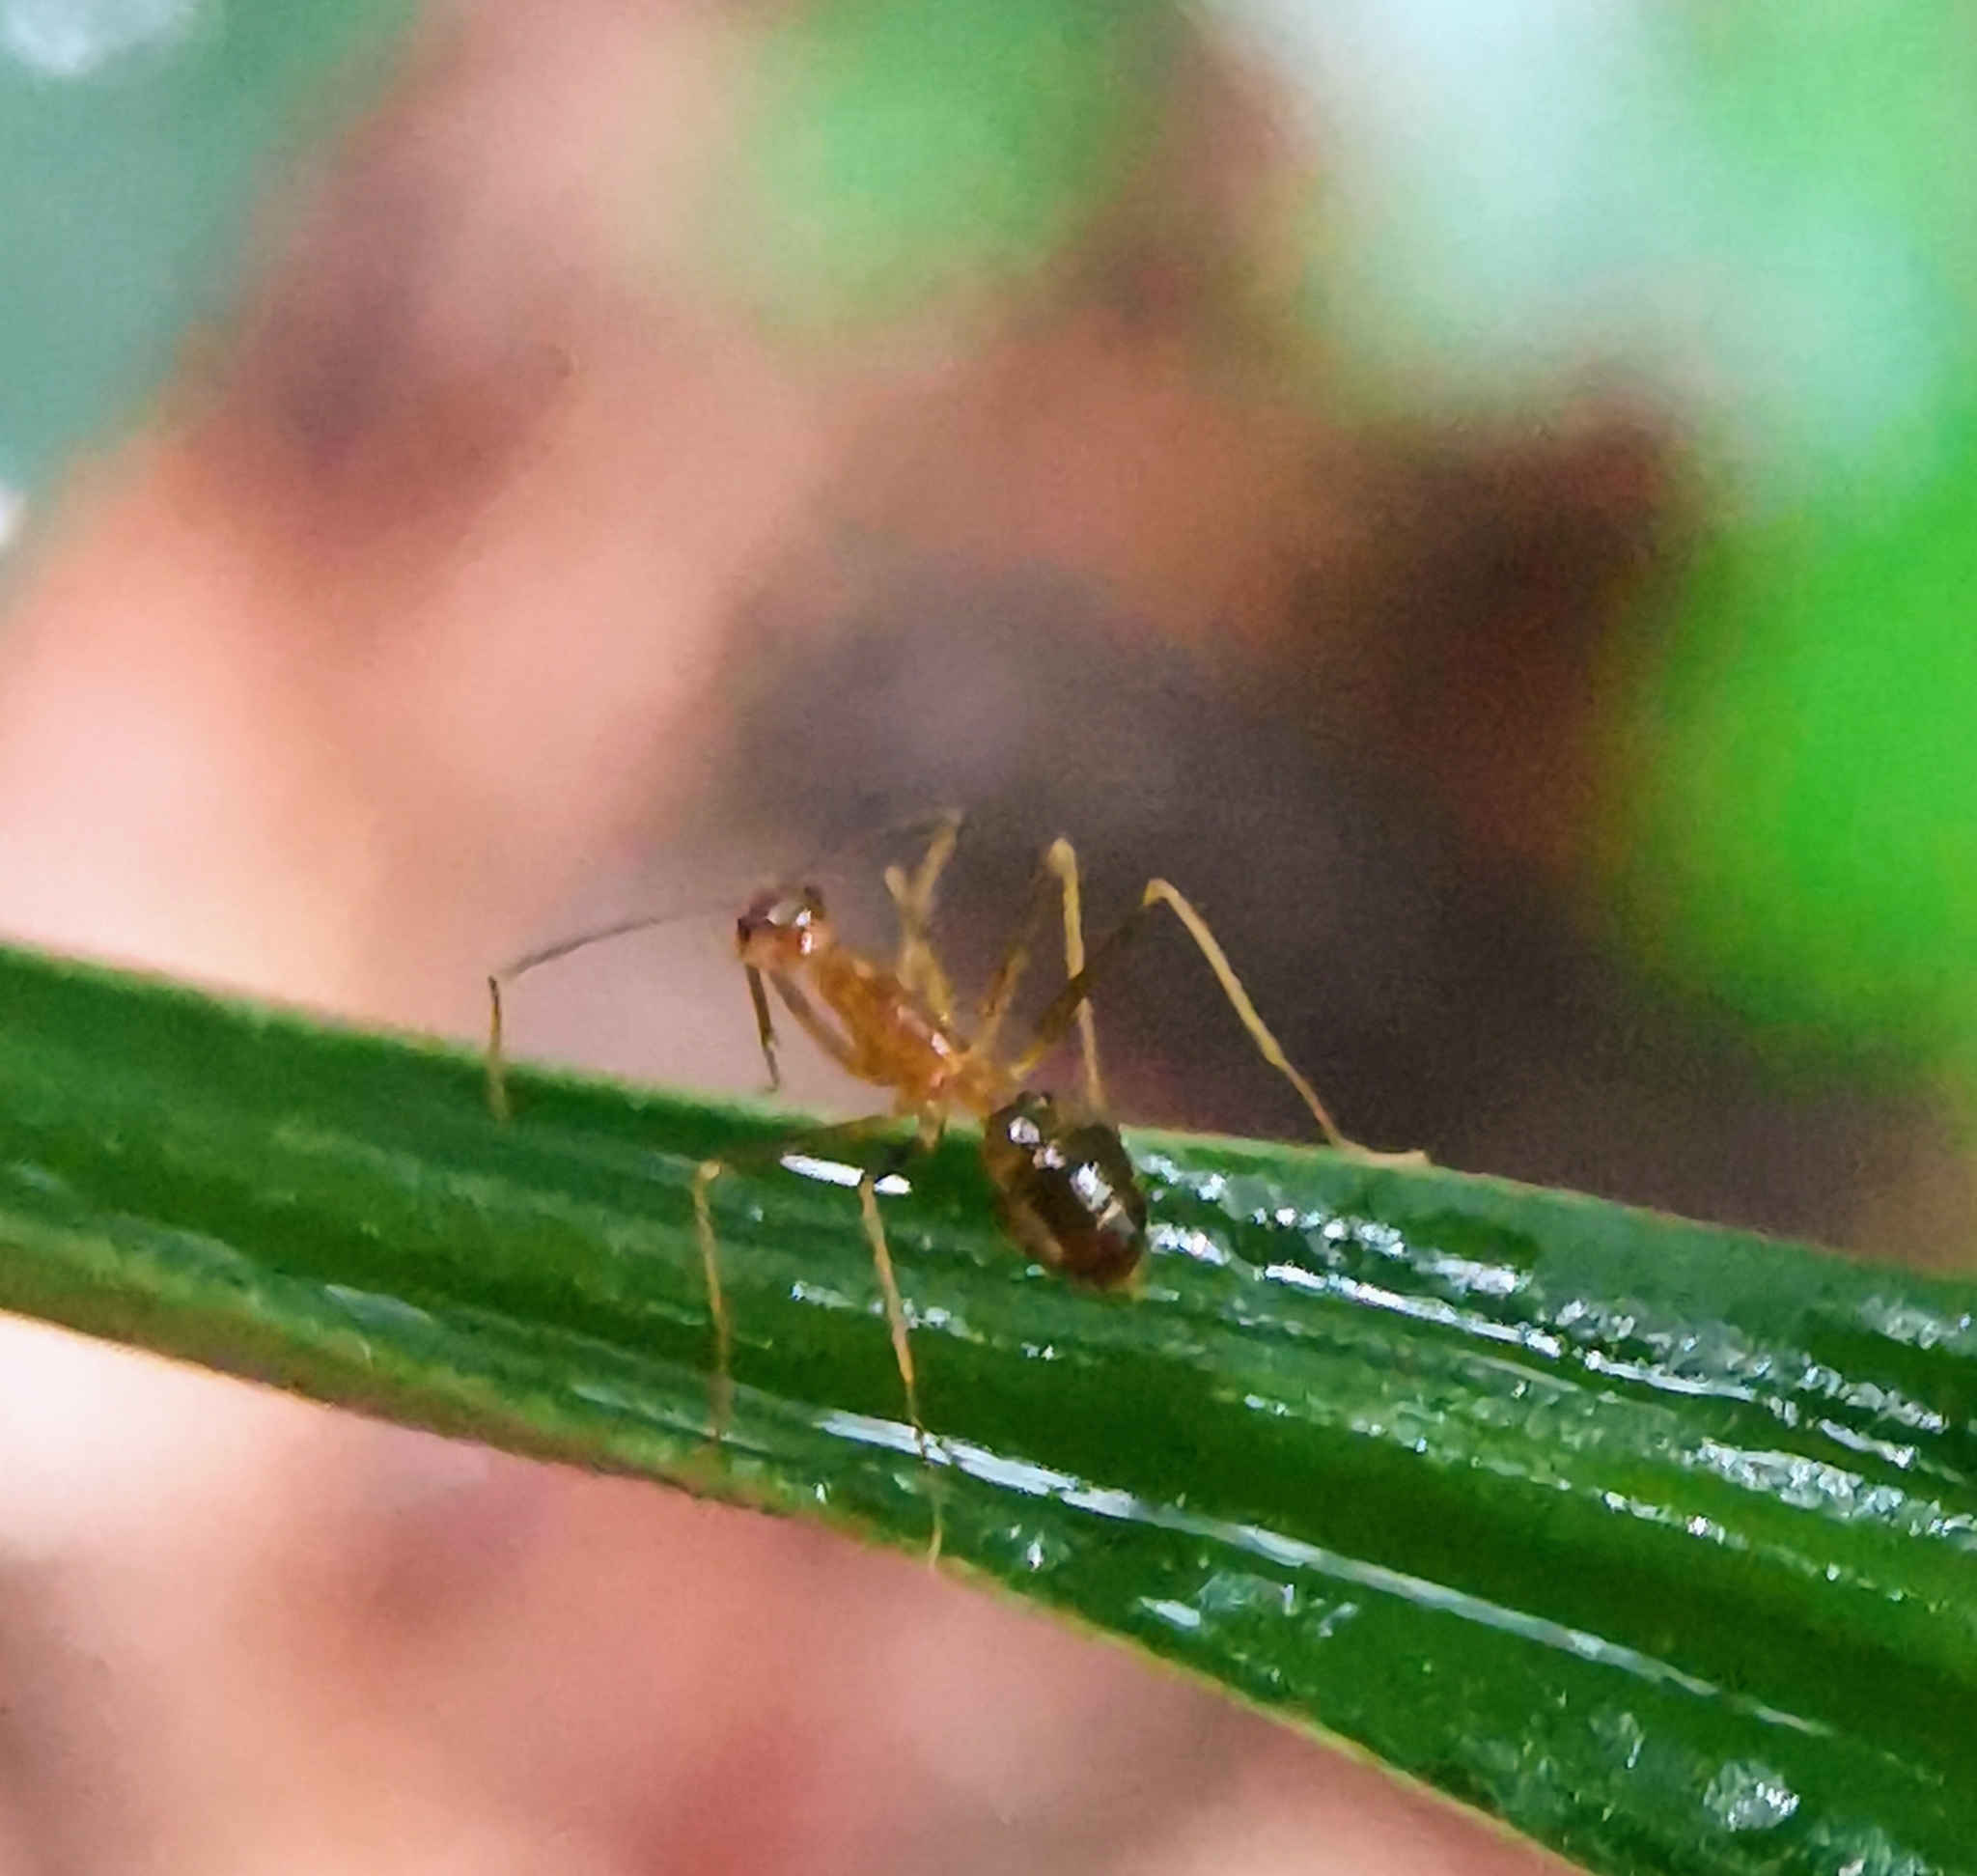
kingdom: Animalia
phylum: Arthropoda
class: Insecta
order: Hymenoptera
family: Formicidae
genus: Anoplolepis
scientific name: Anoplolepis gracilipes
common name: Ant
